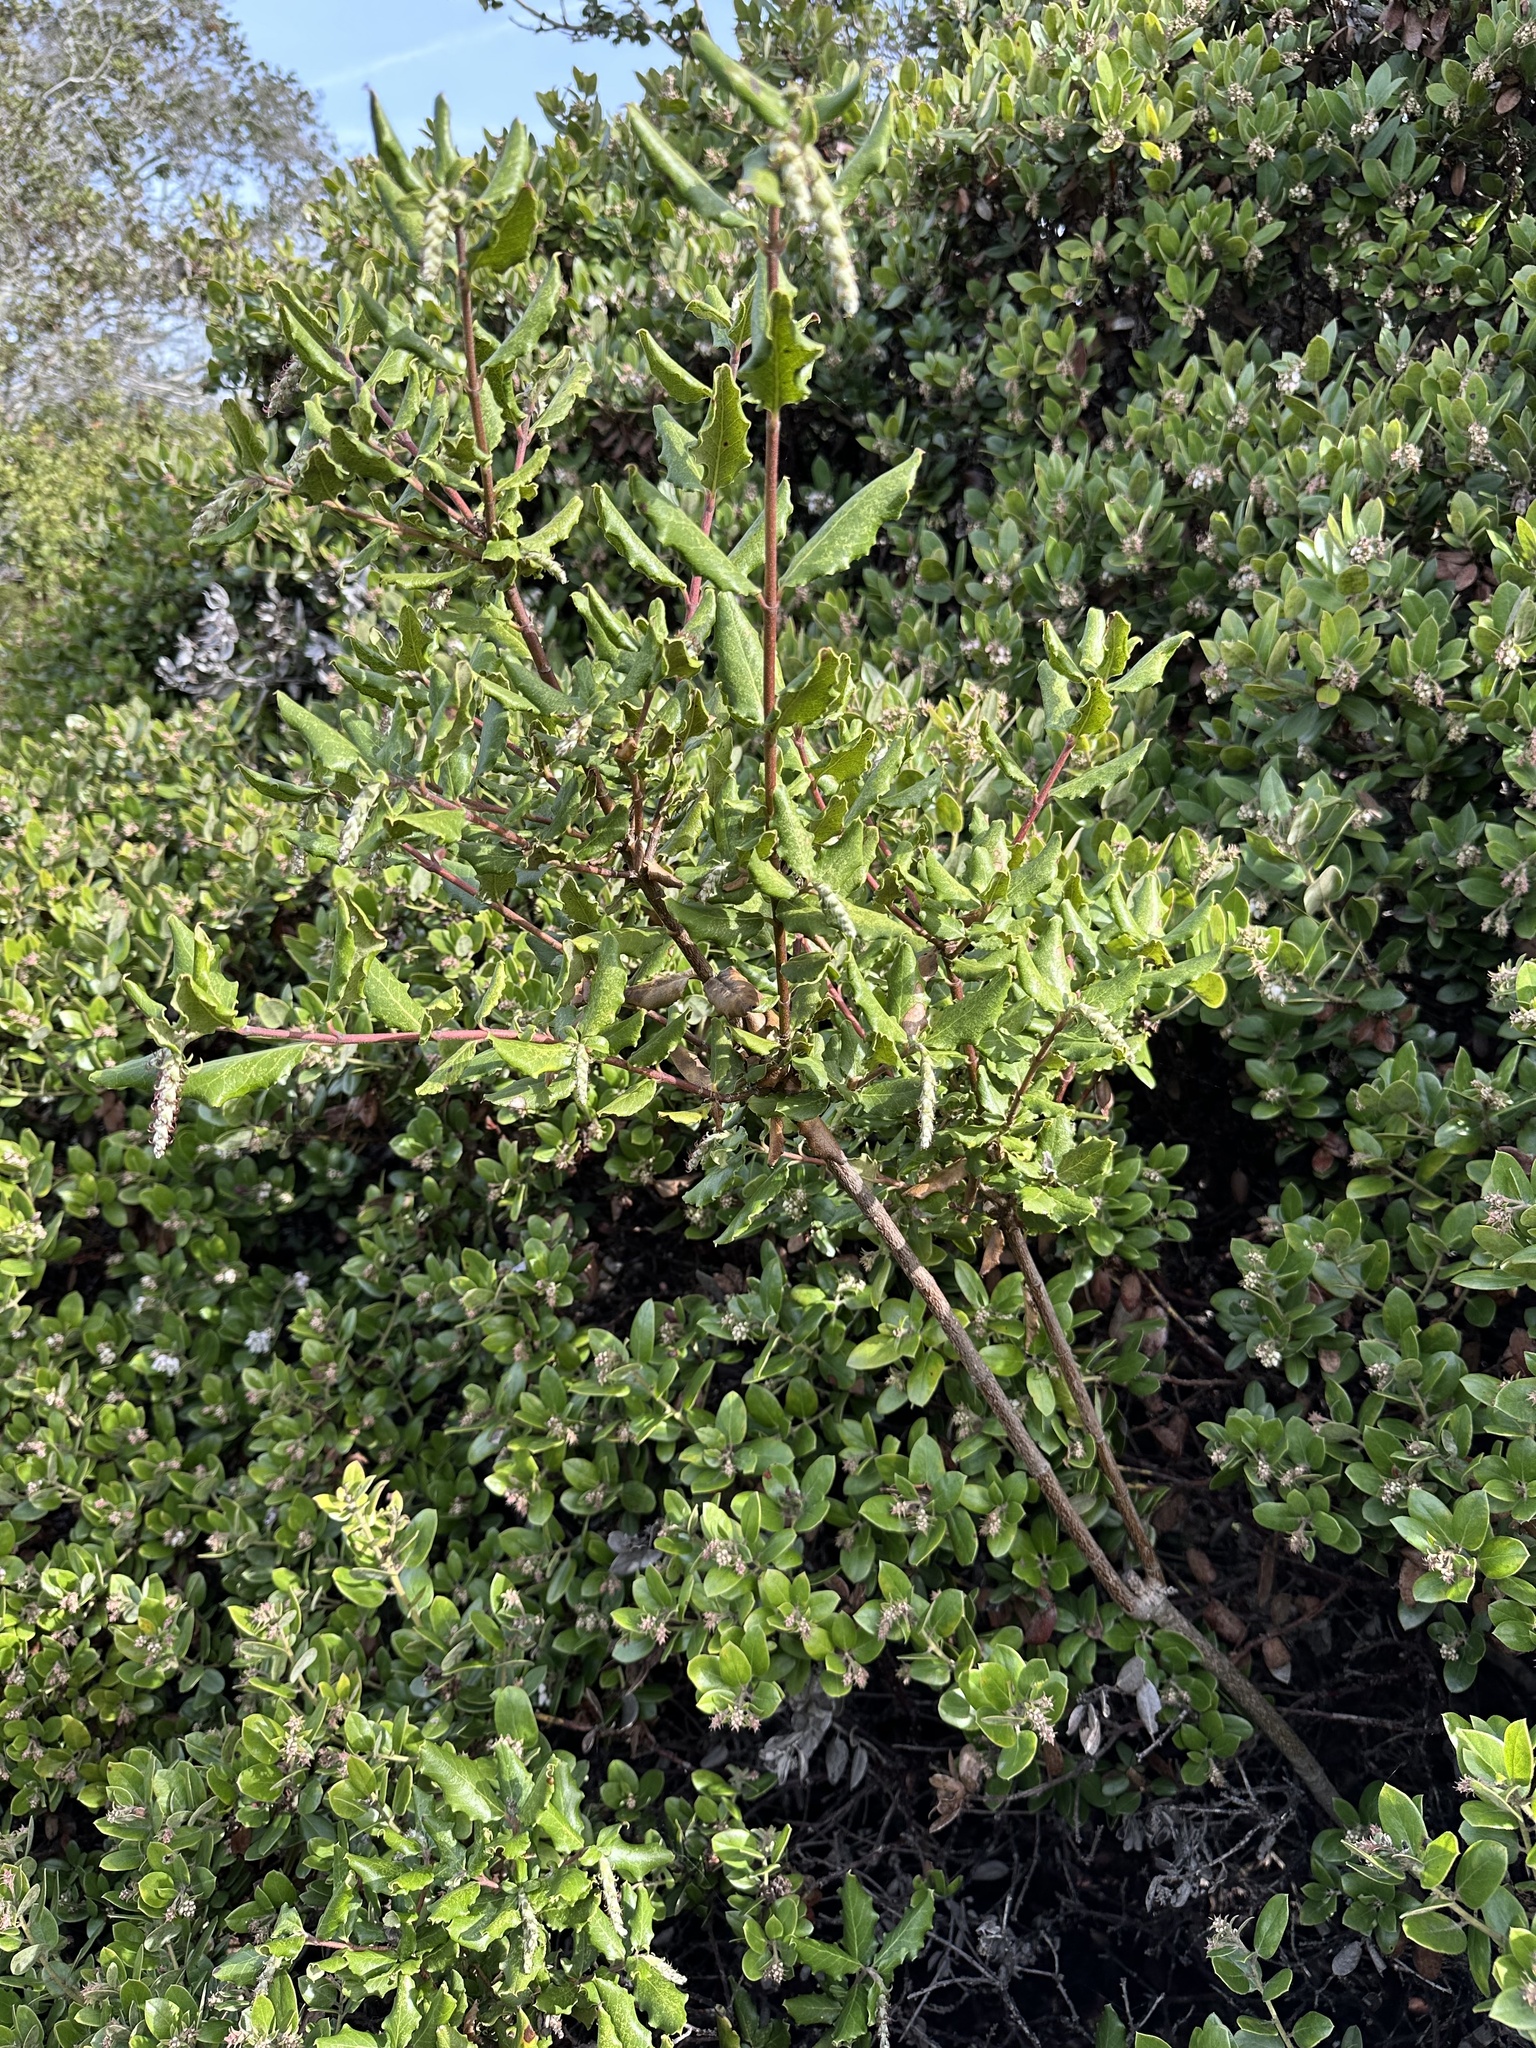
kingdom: Plantae
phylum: Tracheophyta
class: Magnoliopsida
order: Garryales
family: Garryaceae
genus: Garrya
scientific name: Garrya elliptica
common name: Silk-tassel
